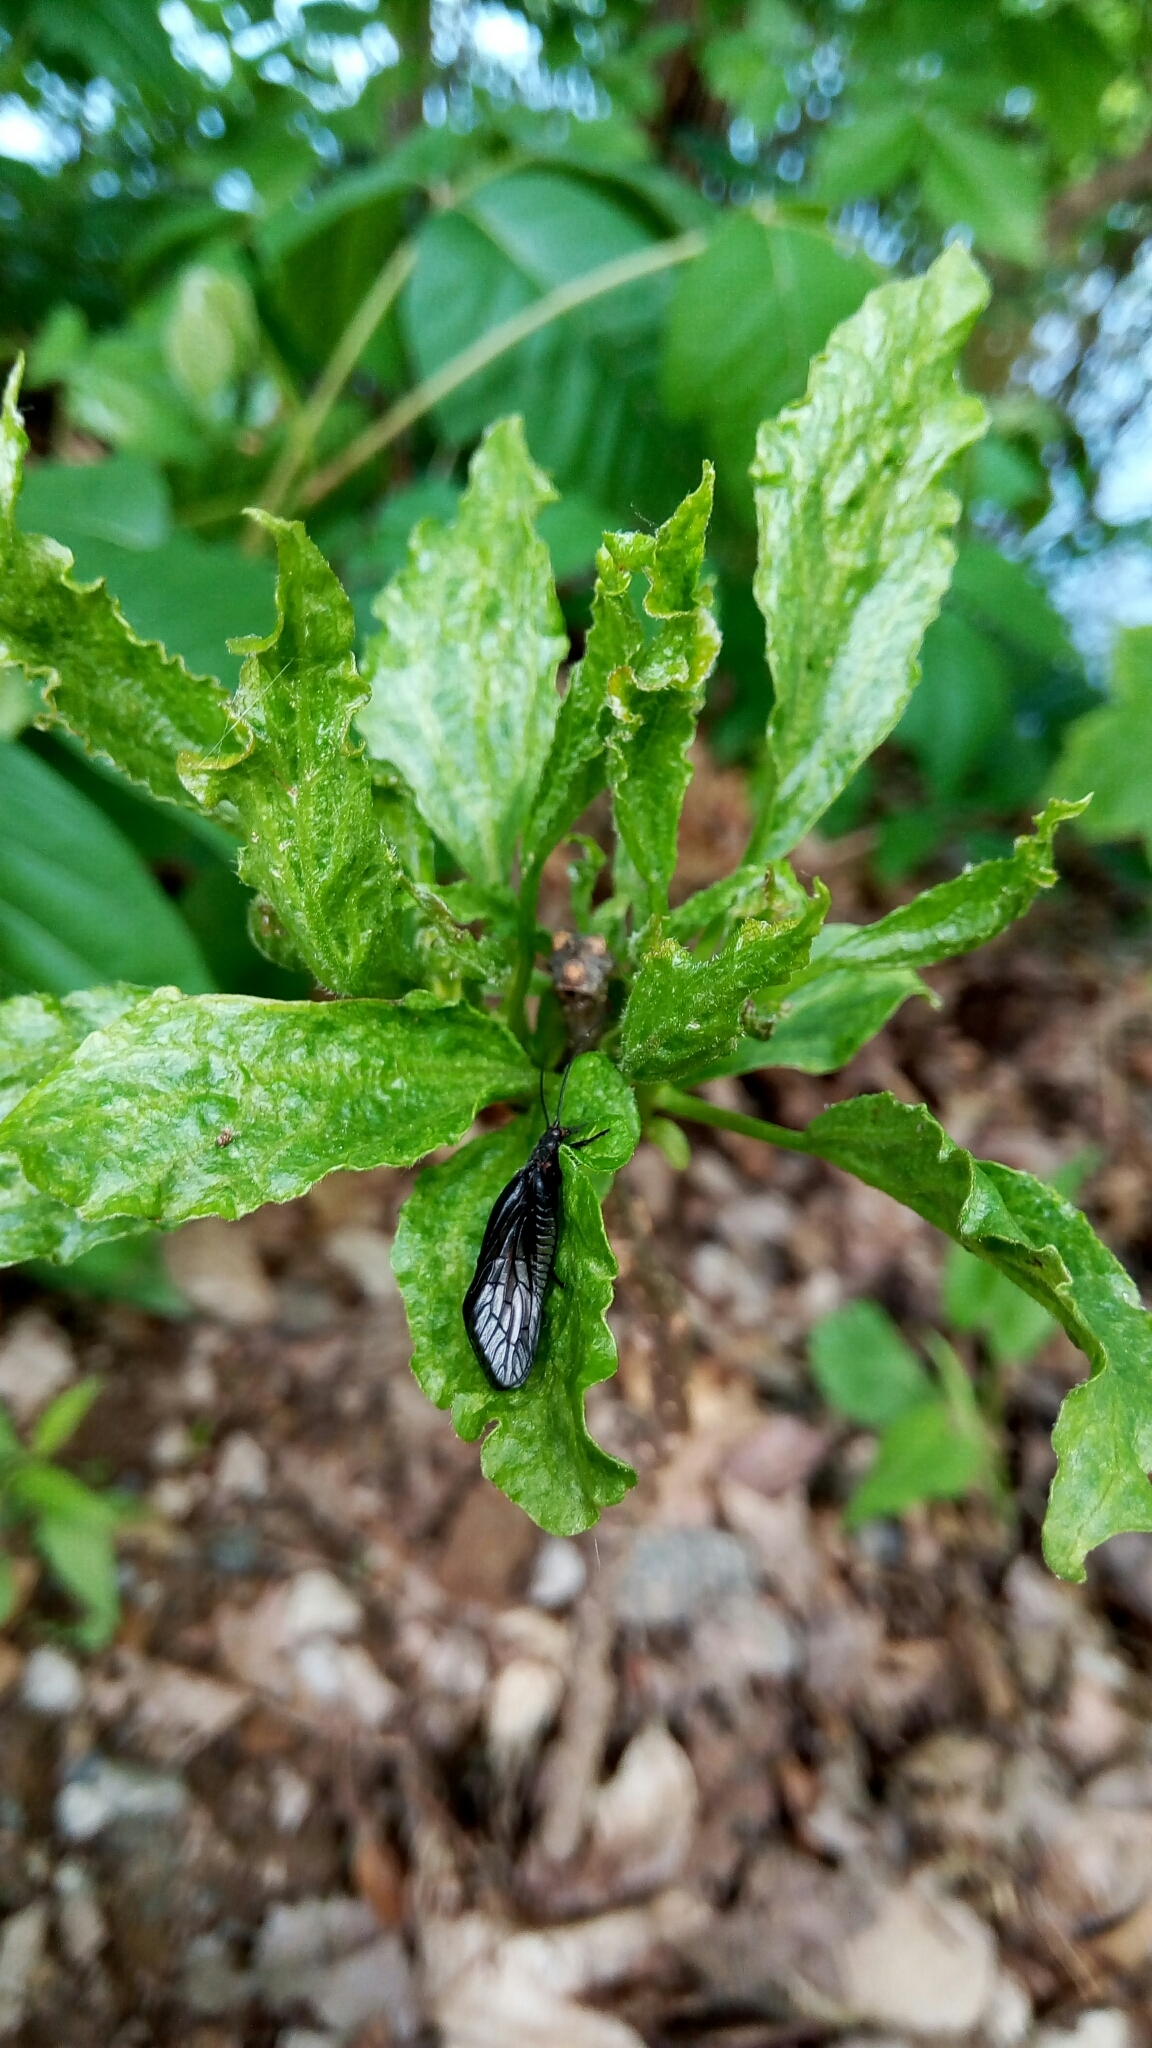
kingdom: Animalia
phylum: Arthropoda
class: Insecta
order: Megaloptera
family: Sialidae
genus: Sialis
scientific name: Sialis
